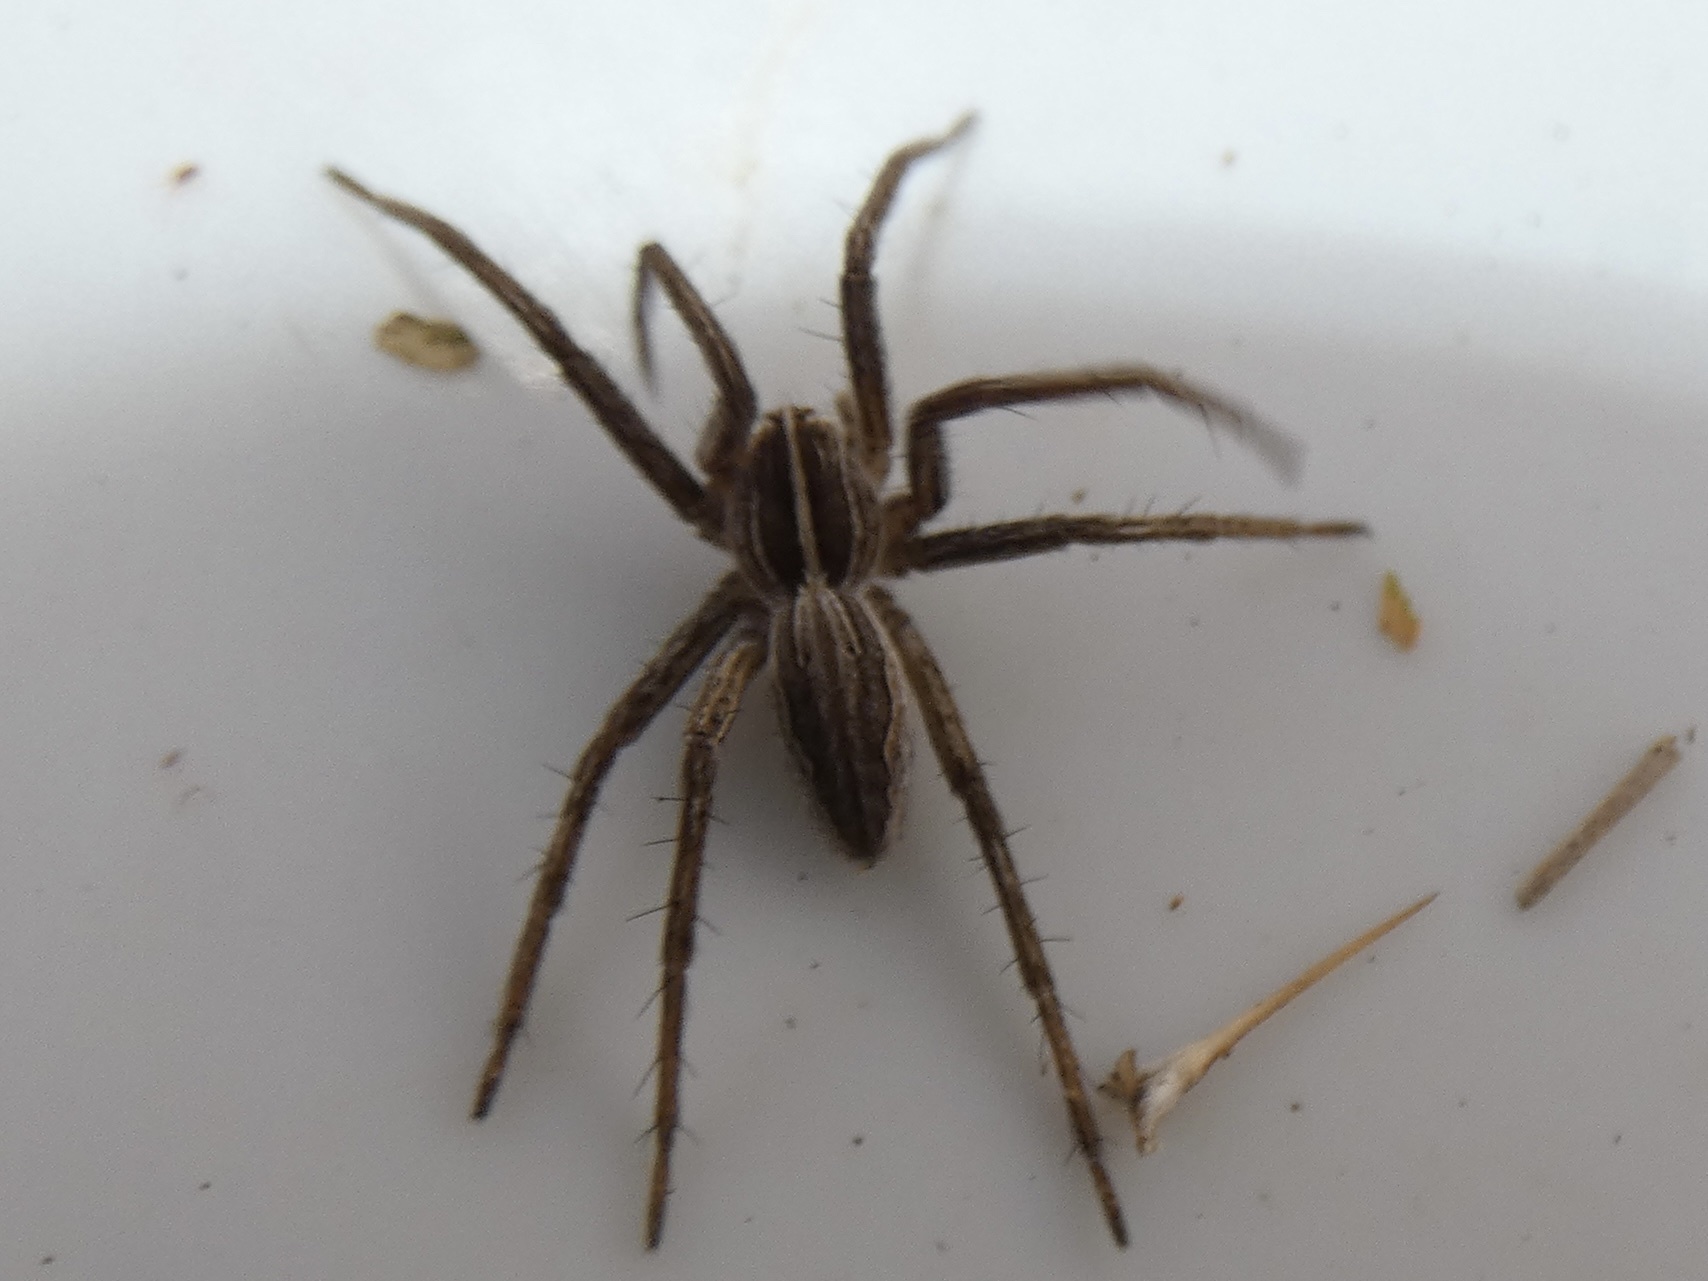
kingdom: Animalia
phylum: Arthropoda
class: Arachnida
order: Araneae
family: Pisauridae
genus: Pisaura
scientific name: Pisaura mirabilis
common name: Tent spider
